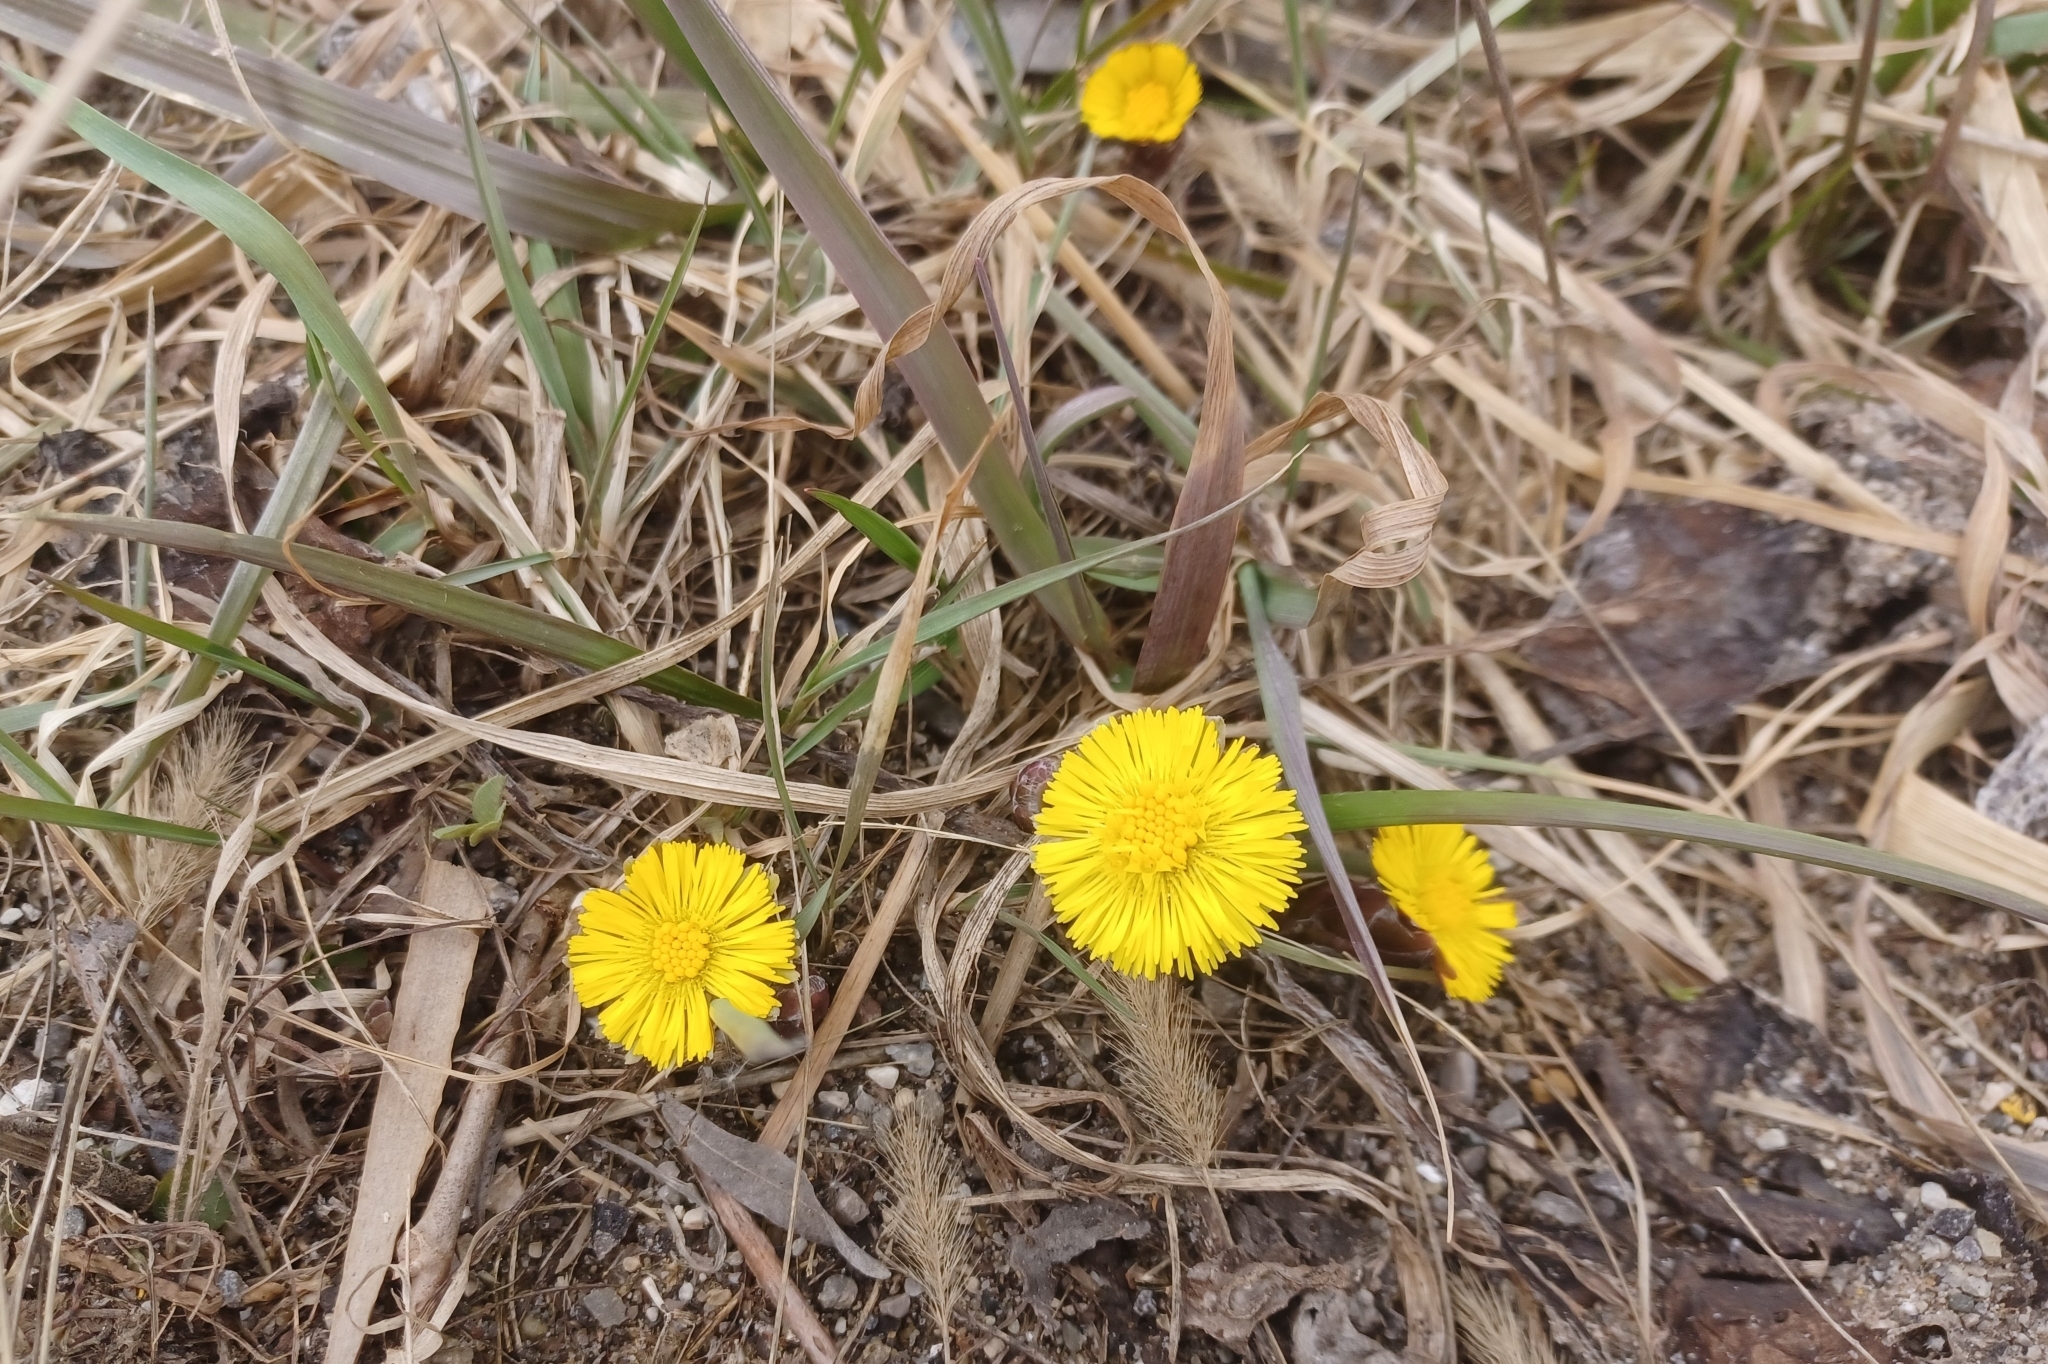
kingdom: Plantae
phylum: Tracheophyta
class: Magnoliopsida
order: Asterales
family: Asteraceae
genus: Tussilago
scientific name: Tussilago farfara
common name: Coltsfoot
